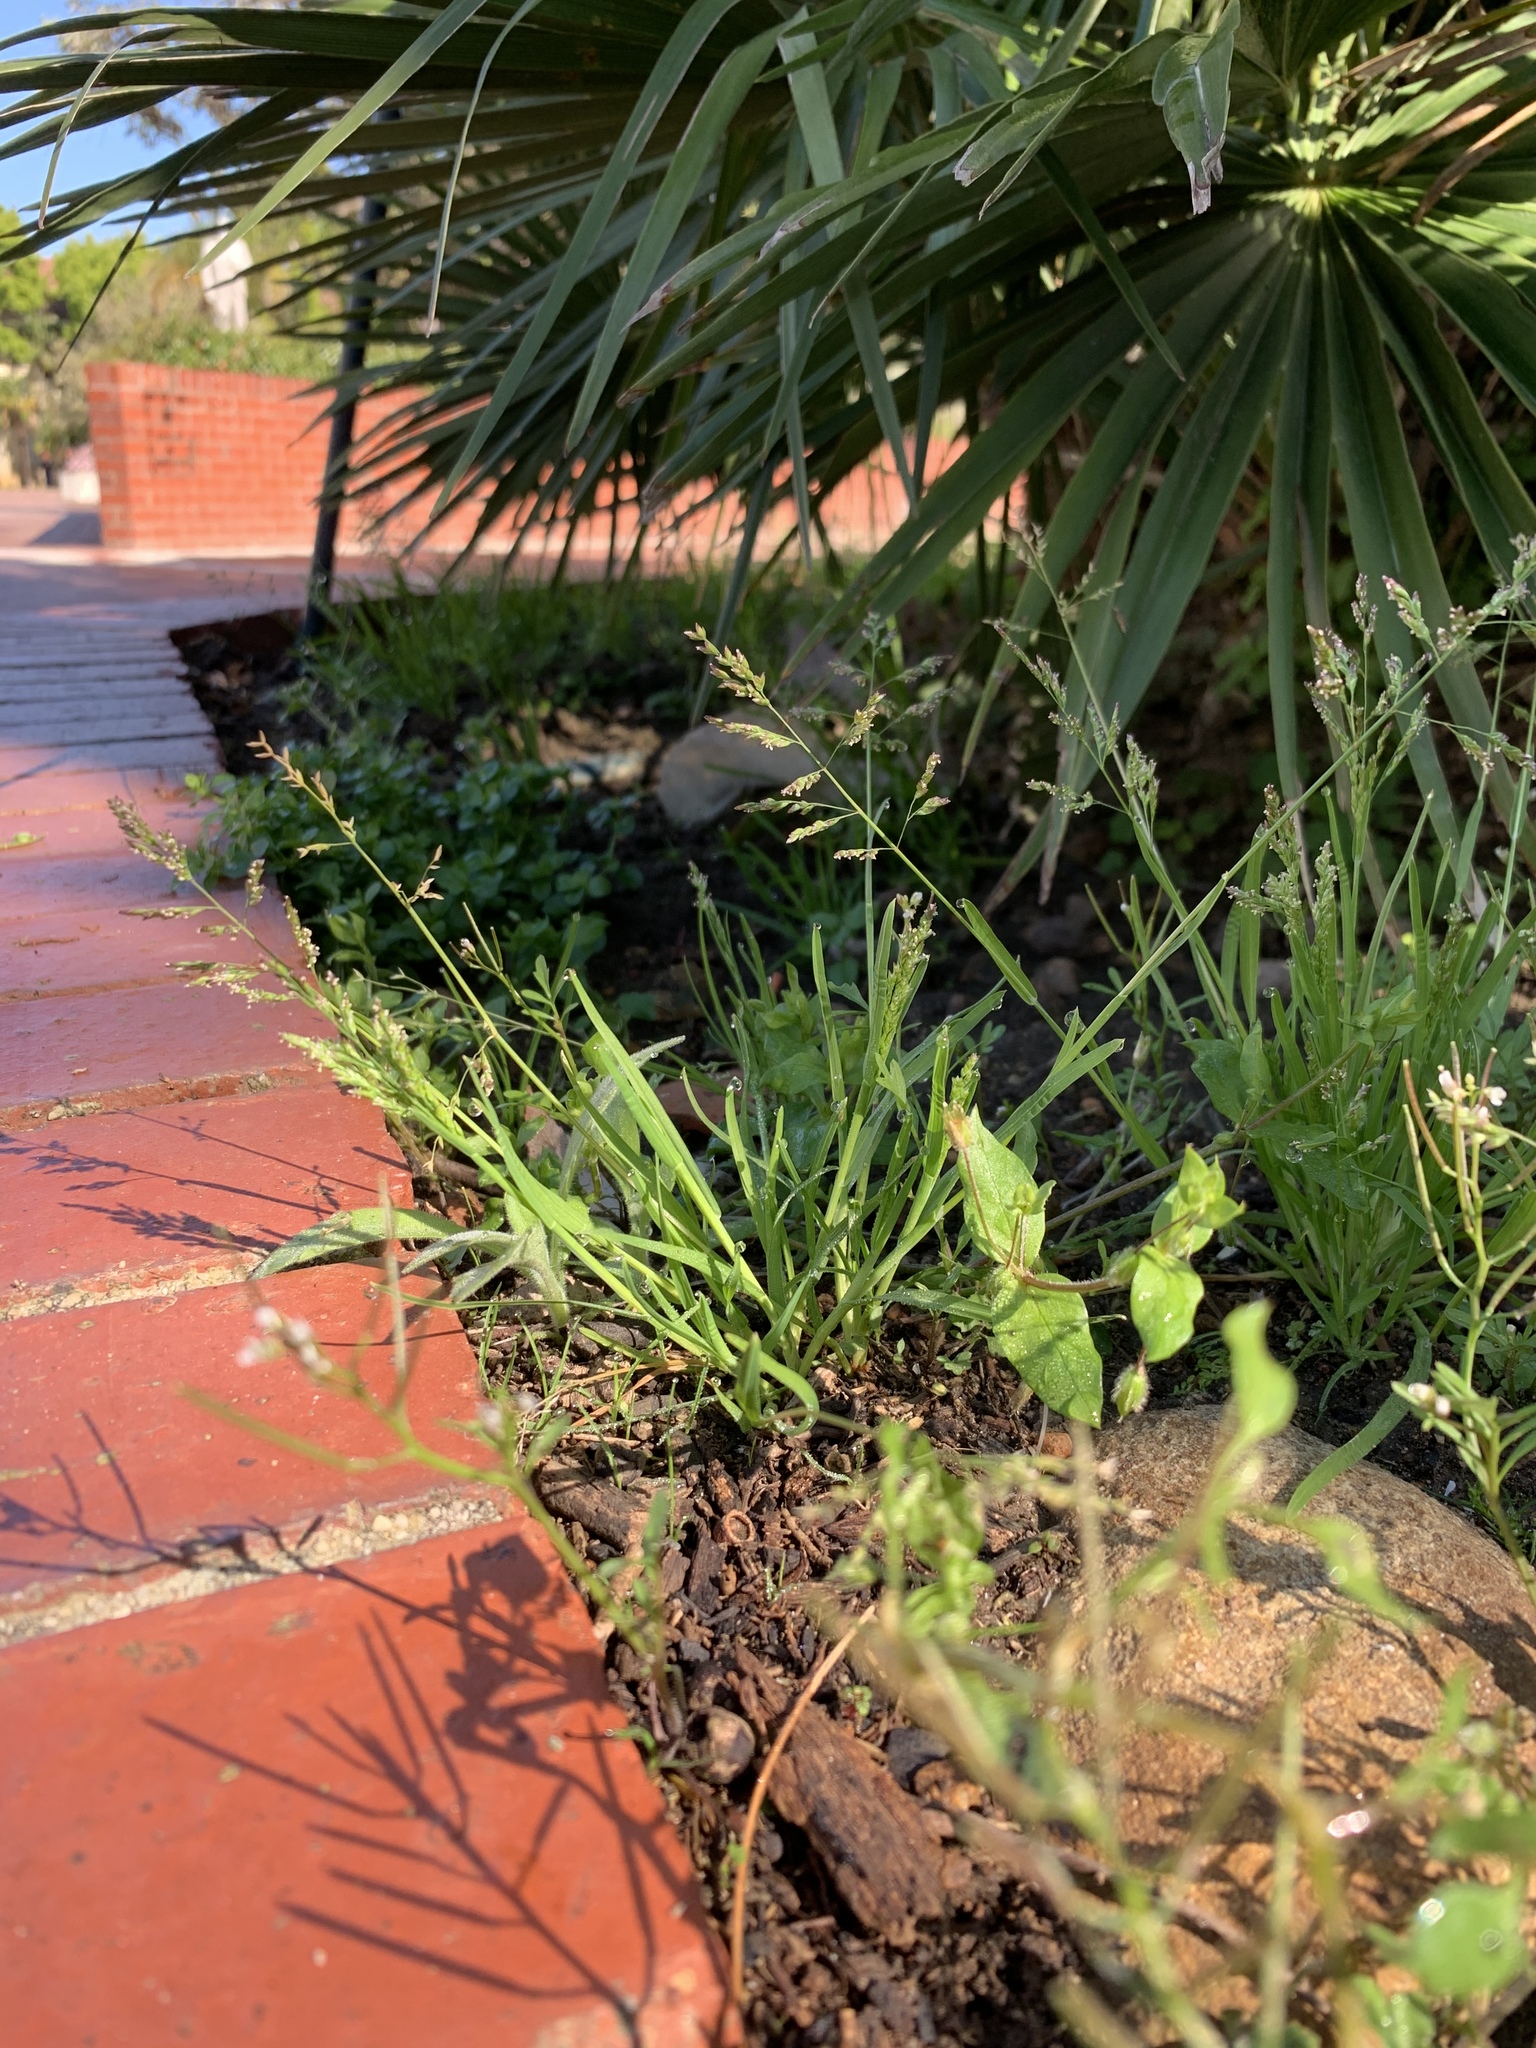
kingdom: Plantae
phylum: Tracheophyta
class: Liliopsida
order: Poales
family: Poaceae
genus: Poa
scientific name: Poa annua
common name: Annual bluegrass
